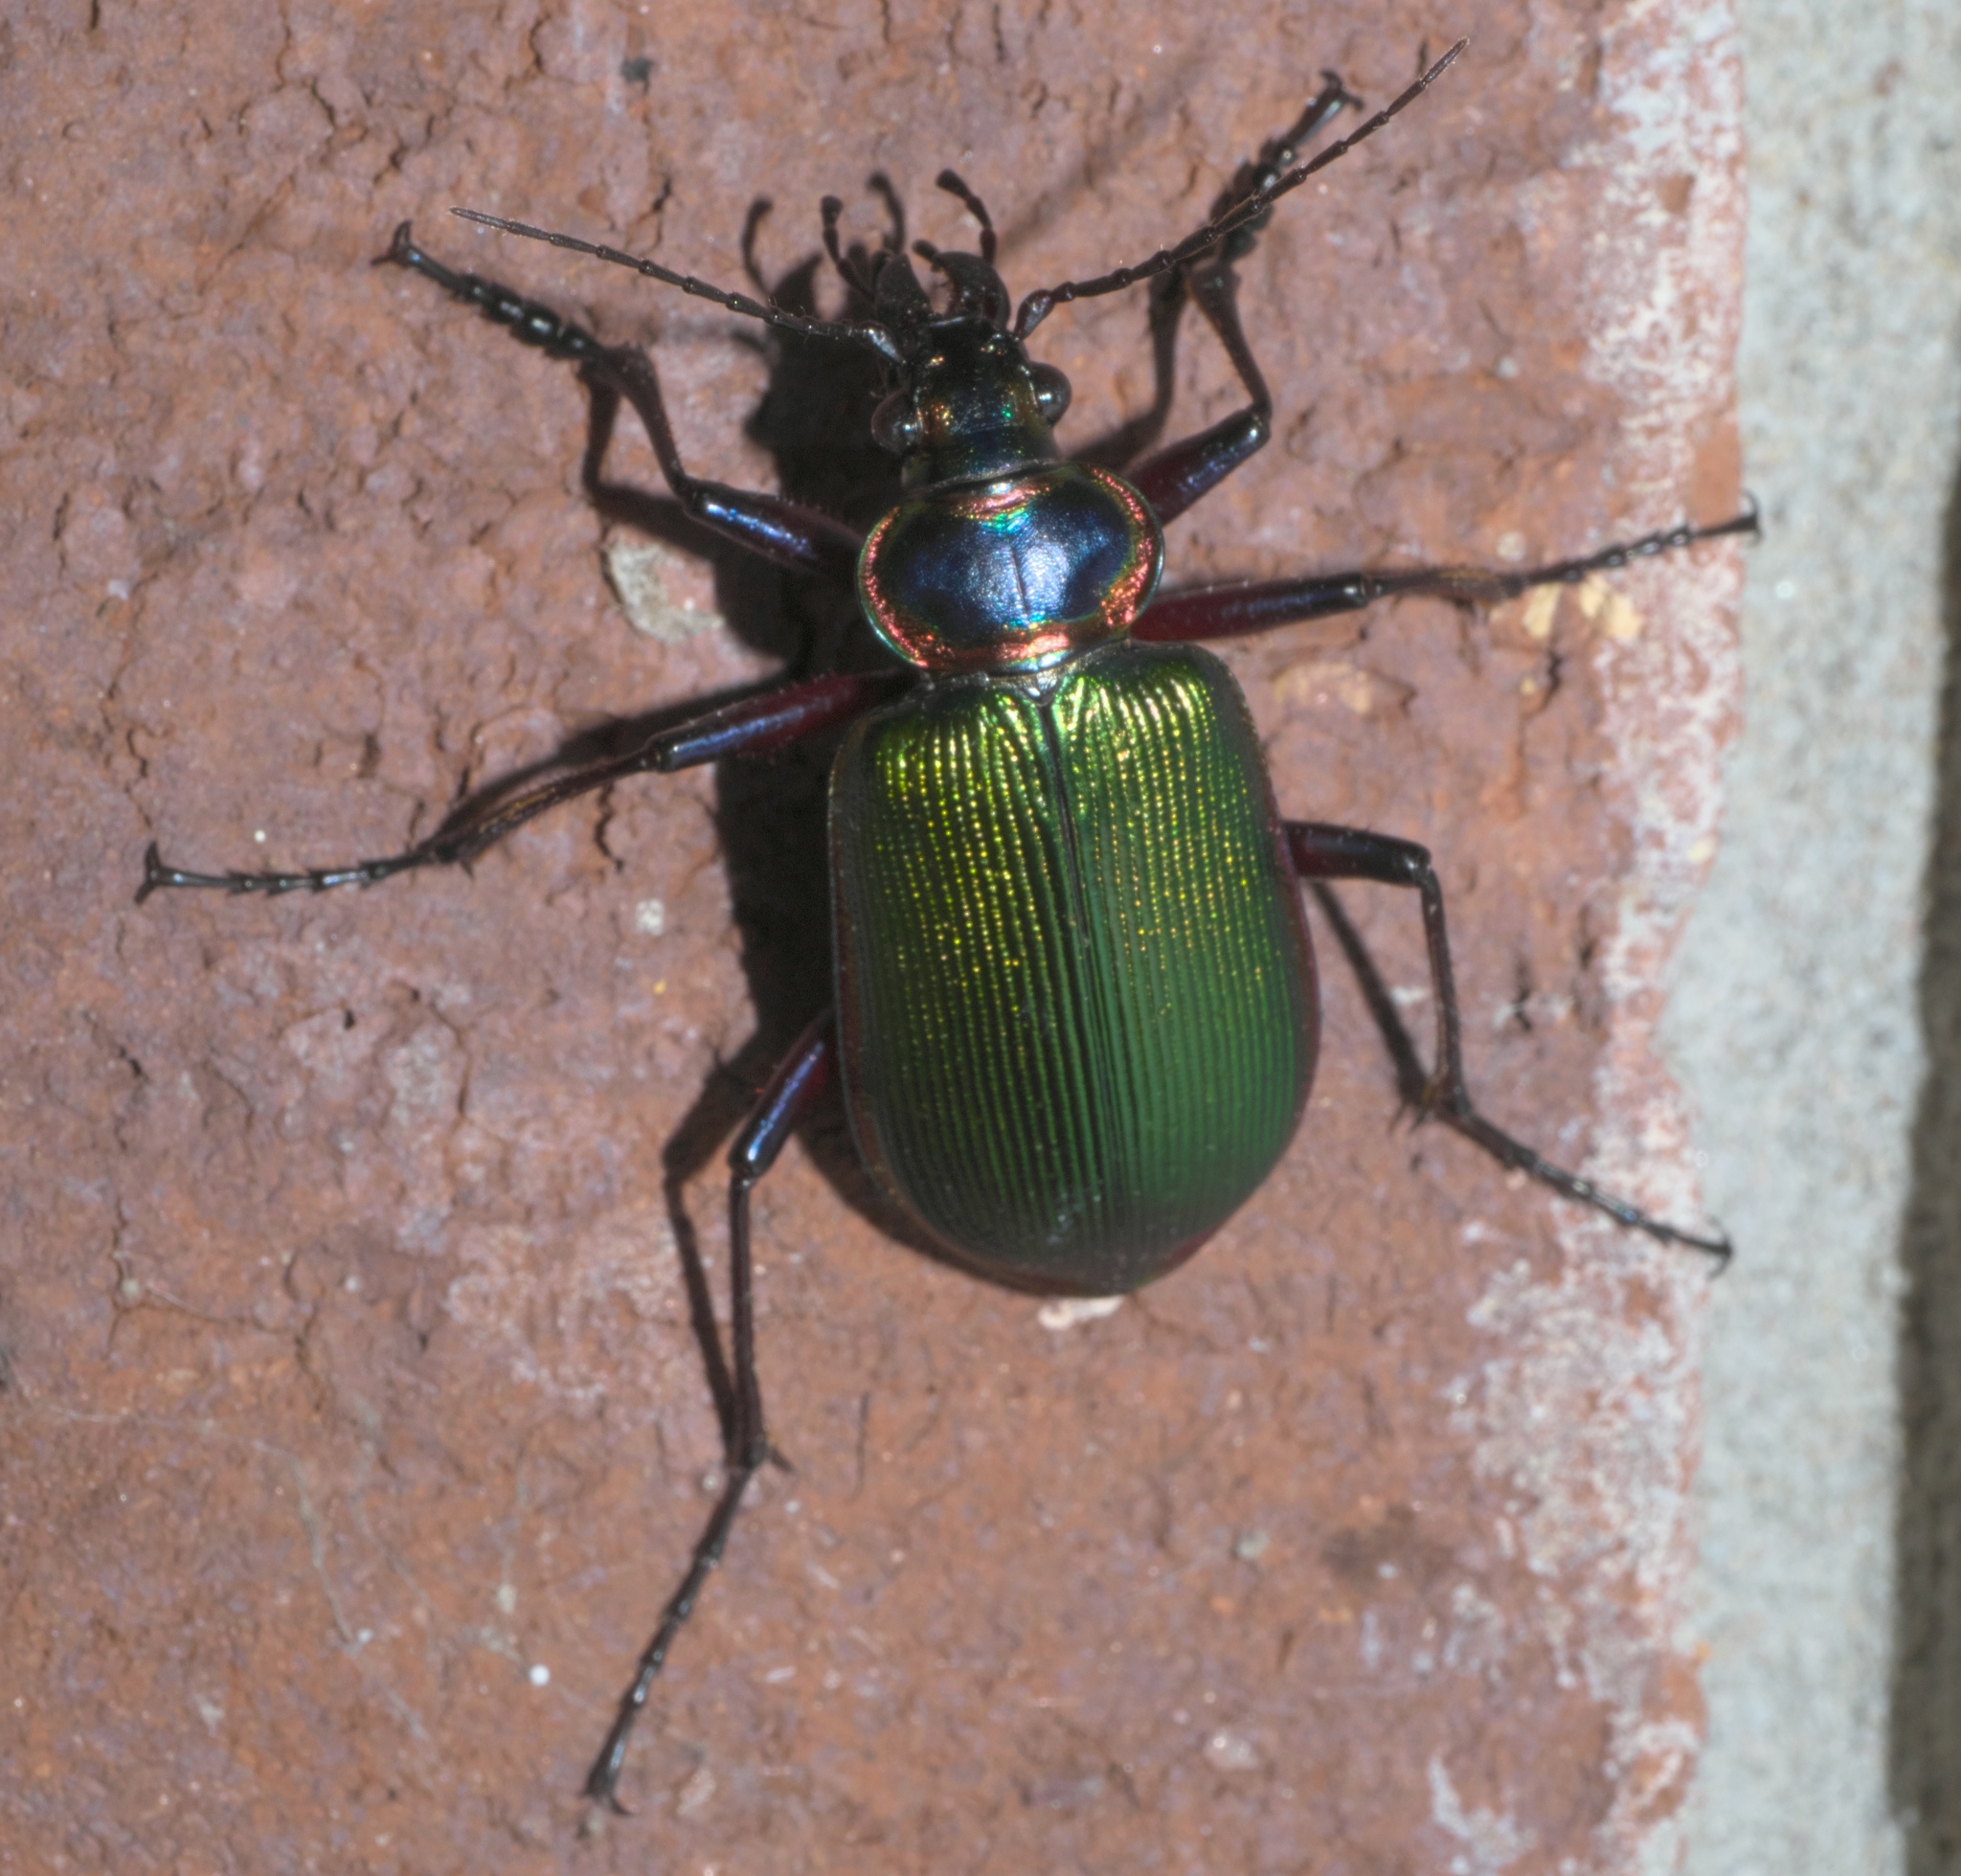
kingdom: Animalia
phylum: Arthropoda
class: Insecta
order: Coleoptera
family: Carabidae
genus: Calosoma
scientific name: Calosoma scrutator
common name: Fiery searcher beetle
